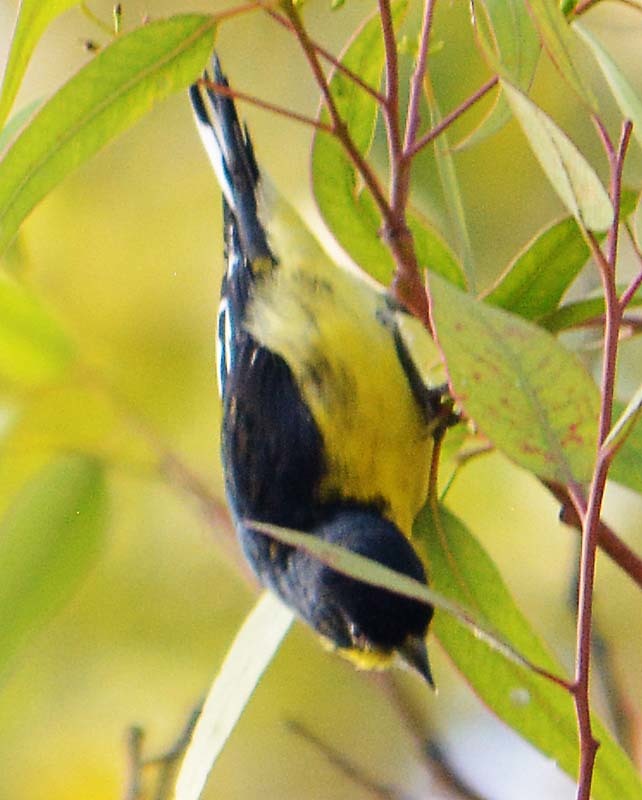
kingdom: Animalia
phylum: Chordata
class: Aves
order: Passeriformes
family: Fringillidae
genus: Spinus
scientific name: Spinus psaltria
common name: Lesser goldfinch
